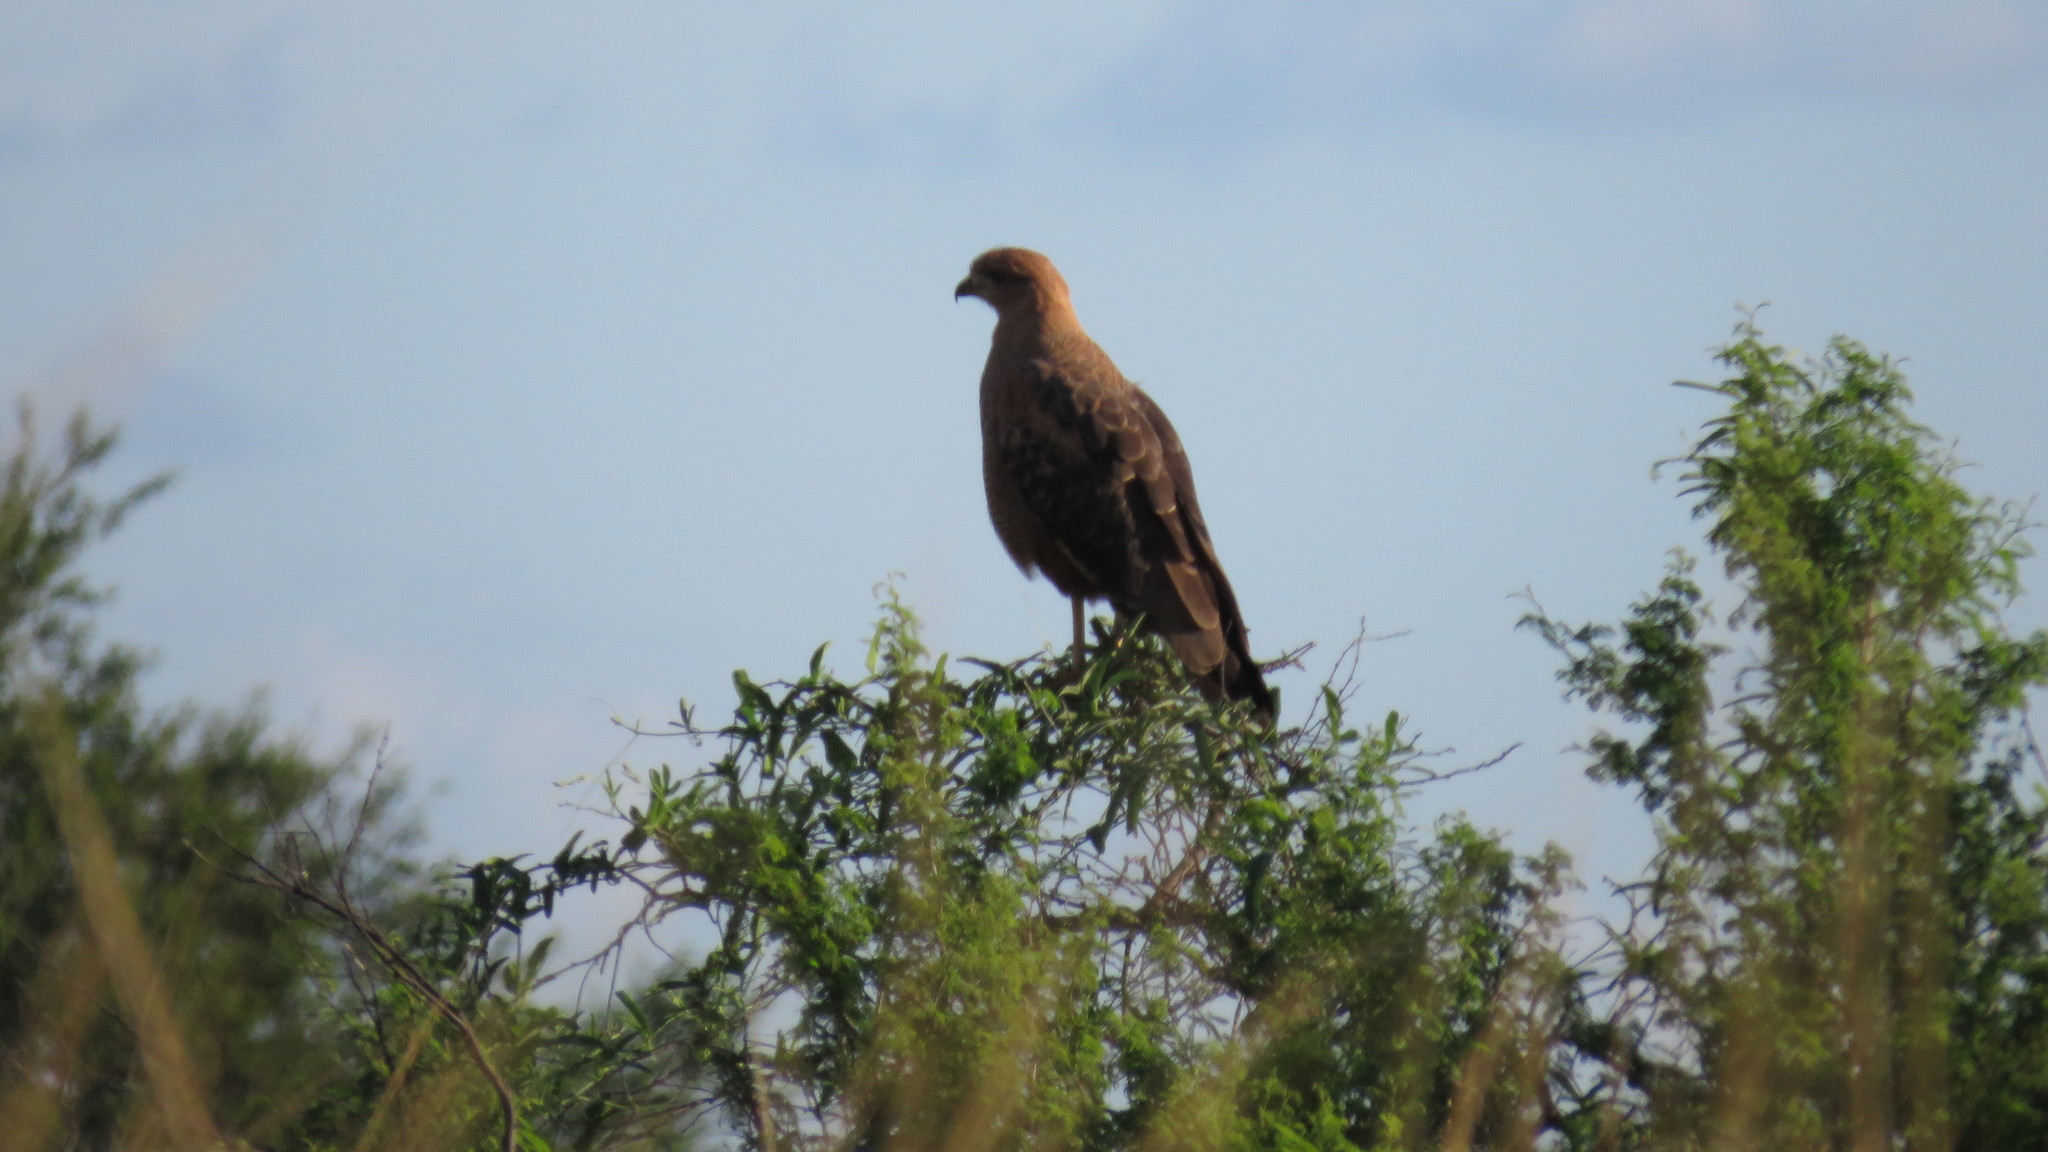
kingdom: Animalia
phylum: Chordata
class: Aves
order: Accipitriformes
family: Accipitridae
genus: Buteogallus
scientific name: Buteogallus meridionalis
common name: Savanna hawk
